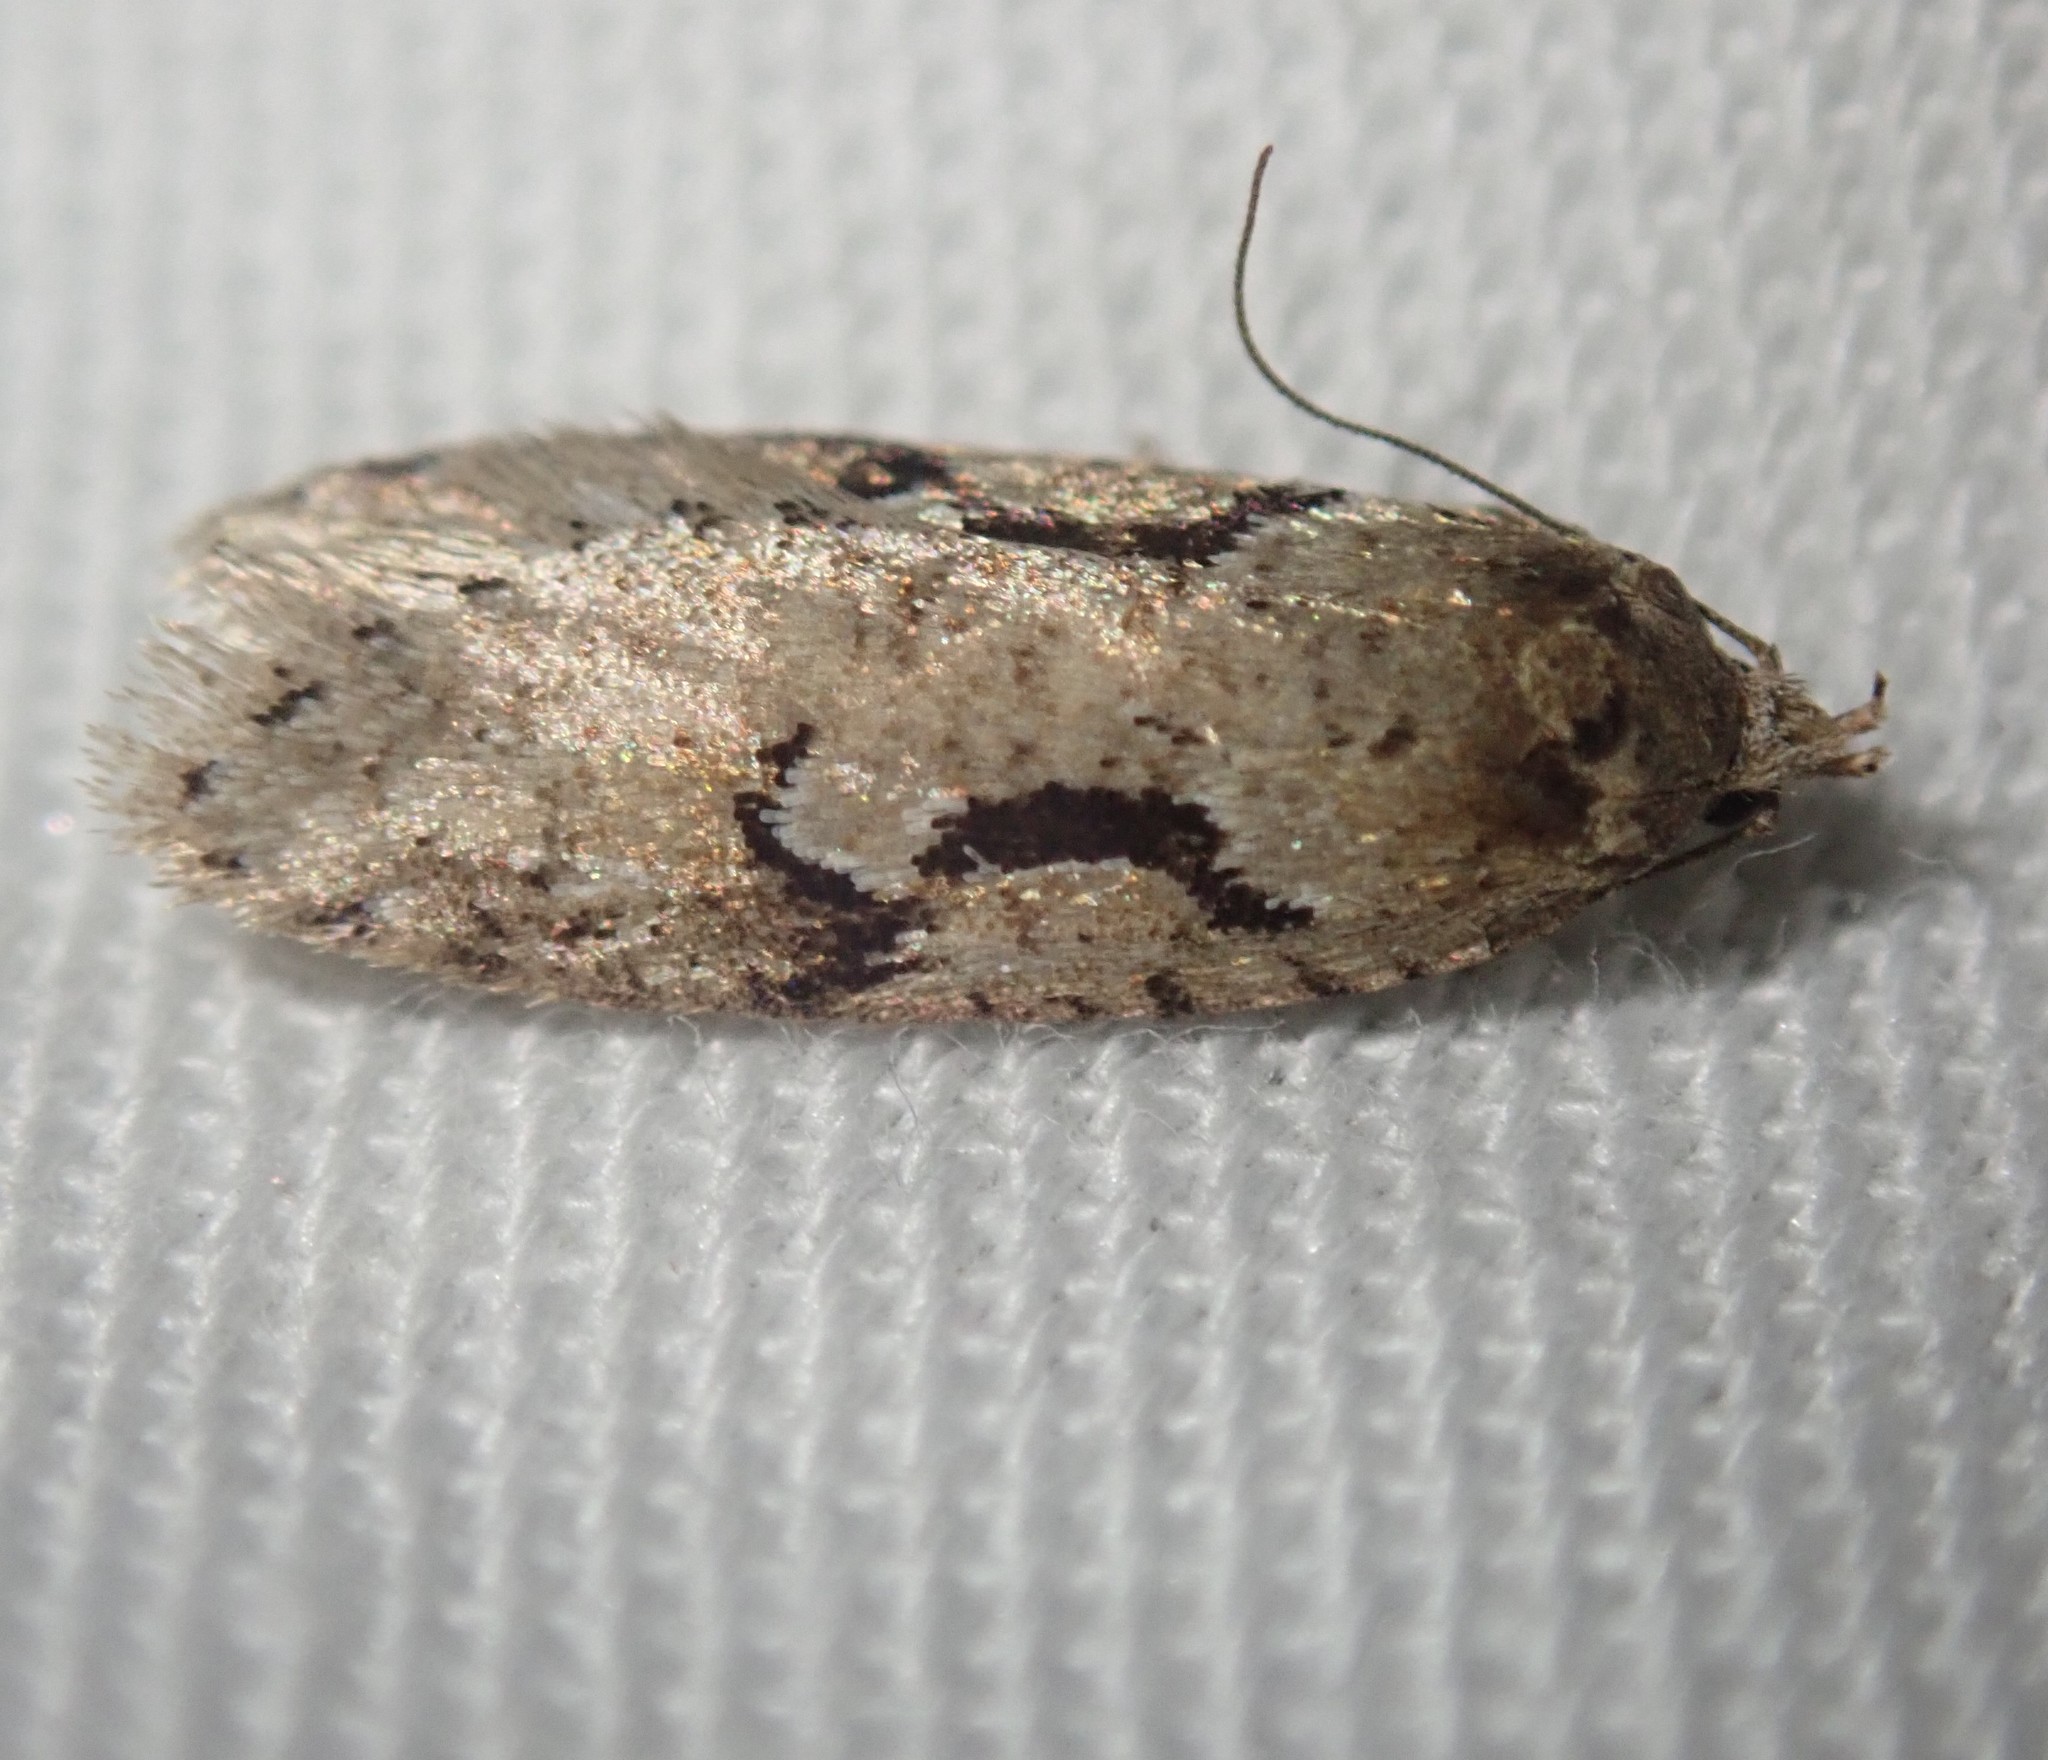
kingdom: Animalia
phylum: Arthropoda
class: Insecta
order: Lepidoptera
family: Depressariidae
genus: Semioscopis
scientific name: Semioscopis steinkellneriana
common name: Dawn flat-body
